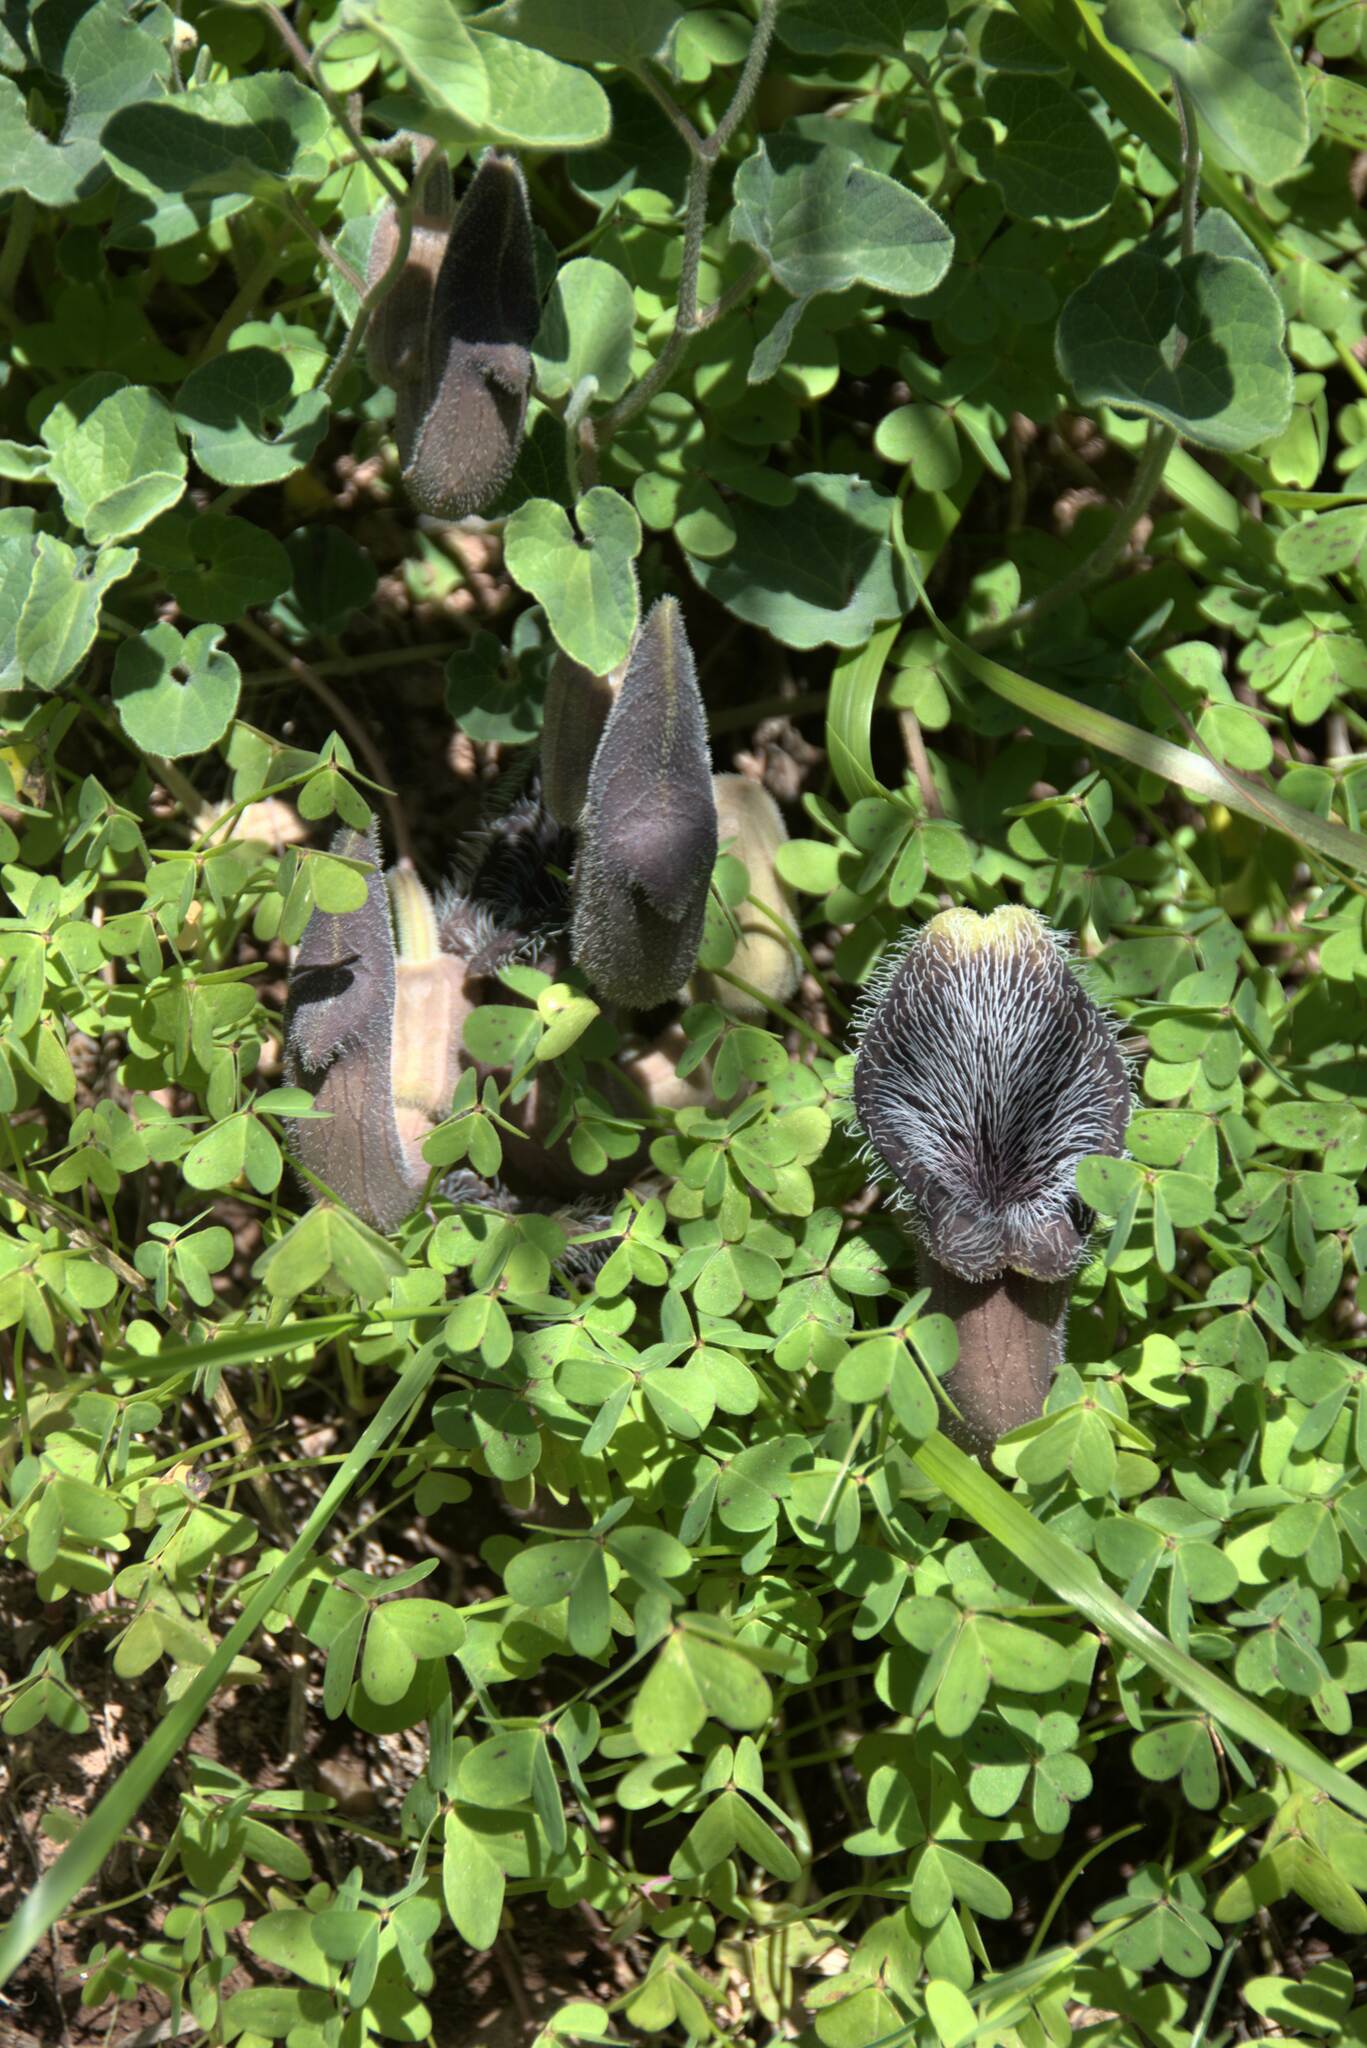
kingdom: Plantae
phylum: Tracheophyta
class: Magnoliopsida
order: Piperales
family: Aristolochiaceae
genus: Aristolochia
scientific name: Aristolochia cretica
